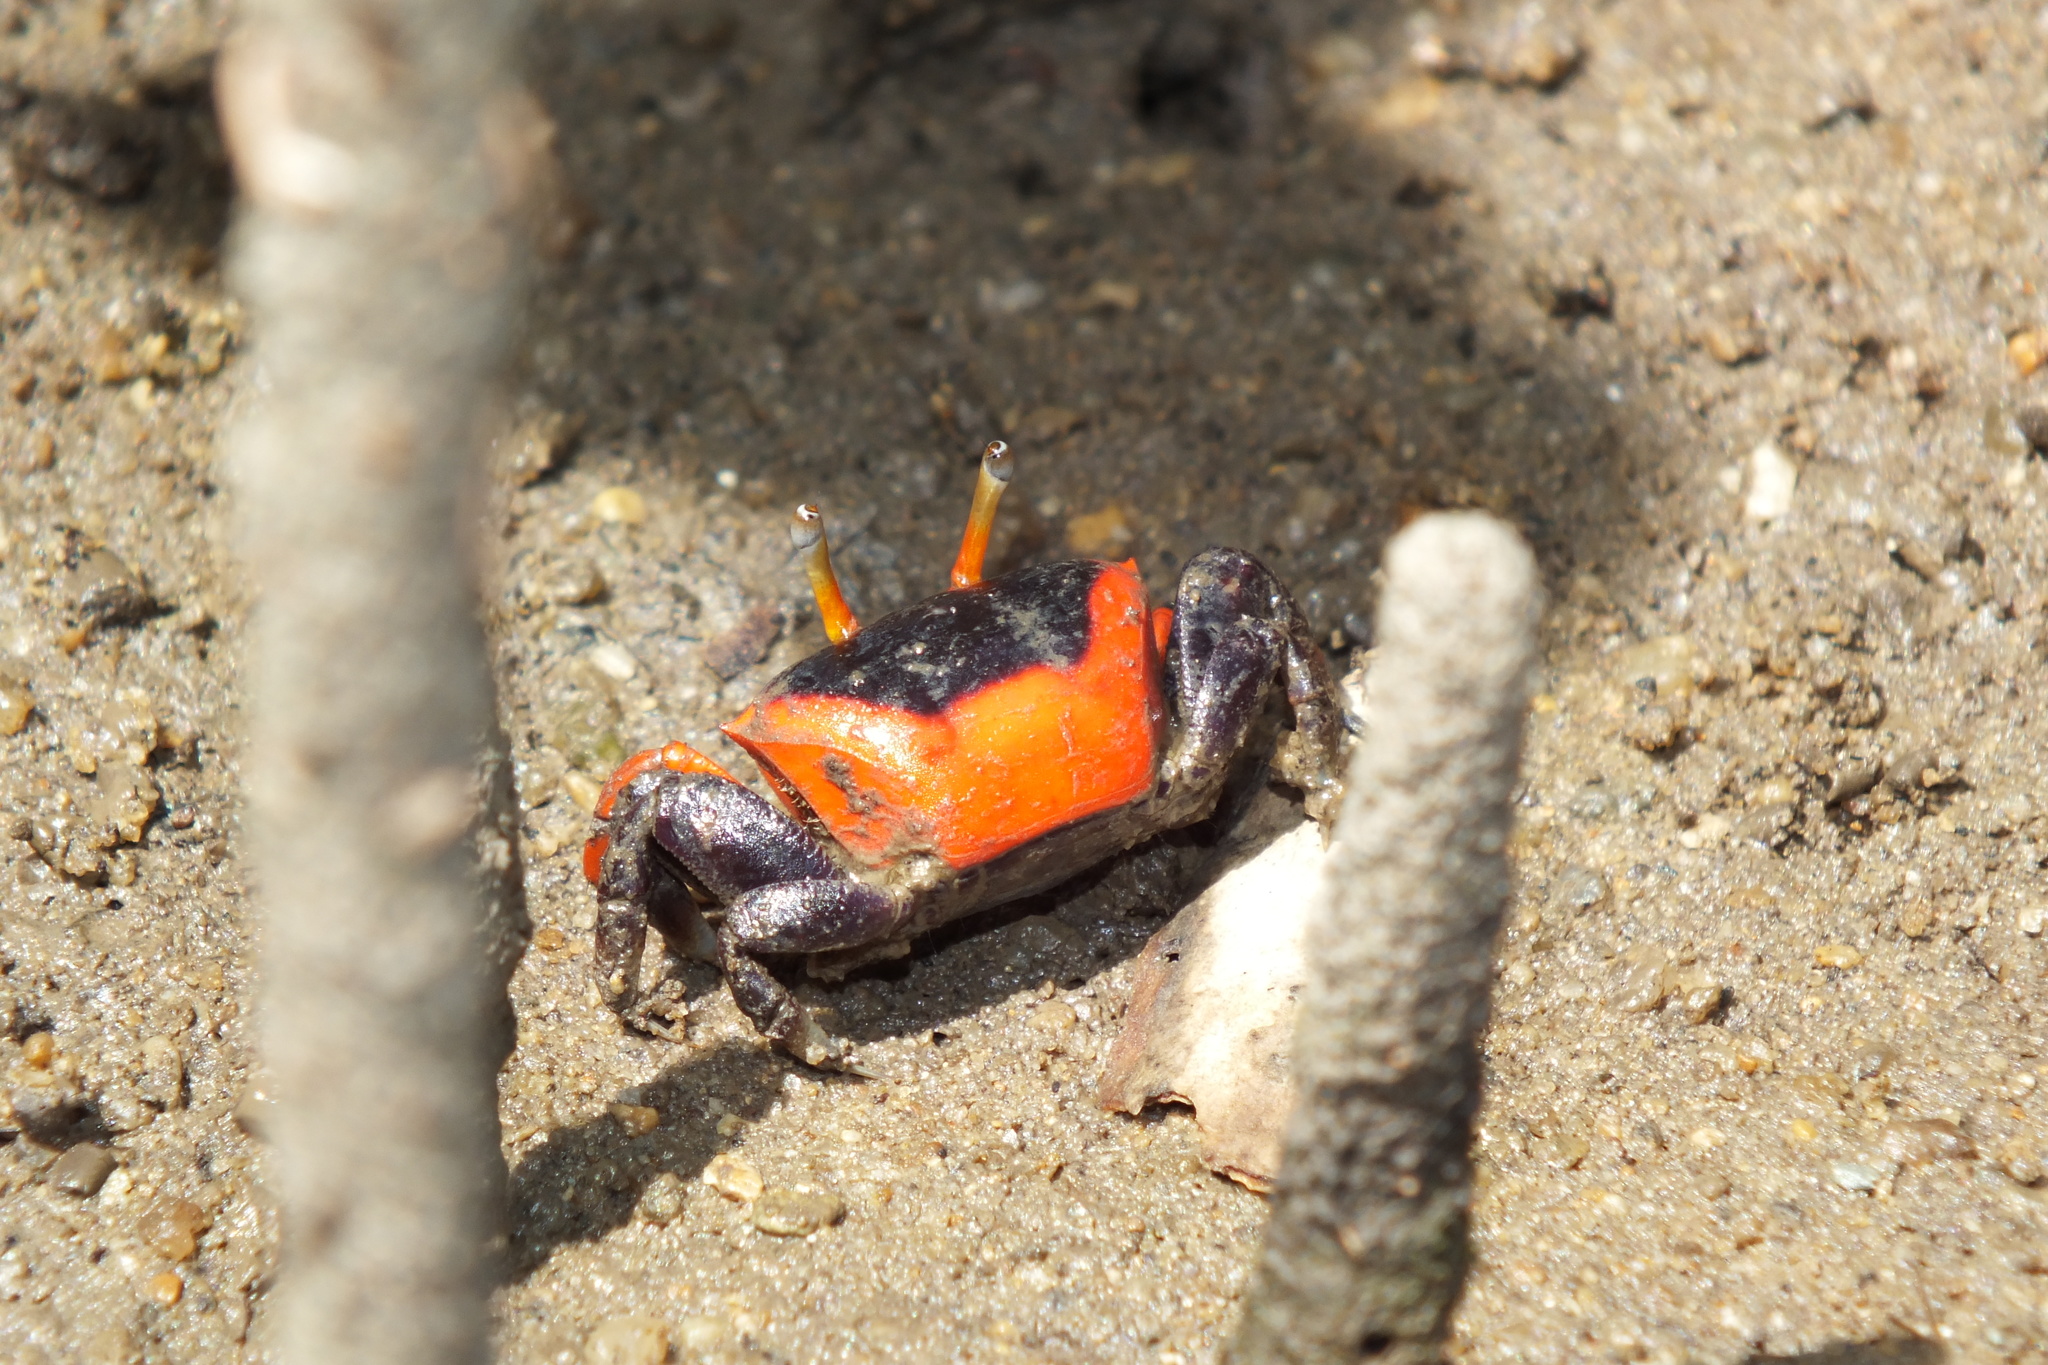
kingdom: Animalia
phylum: Arthropoda
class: Malacostraca
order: Decapoda
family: Ocypodidae
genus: Paraleptuca
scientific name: Paraleptuca crassipes
